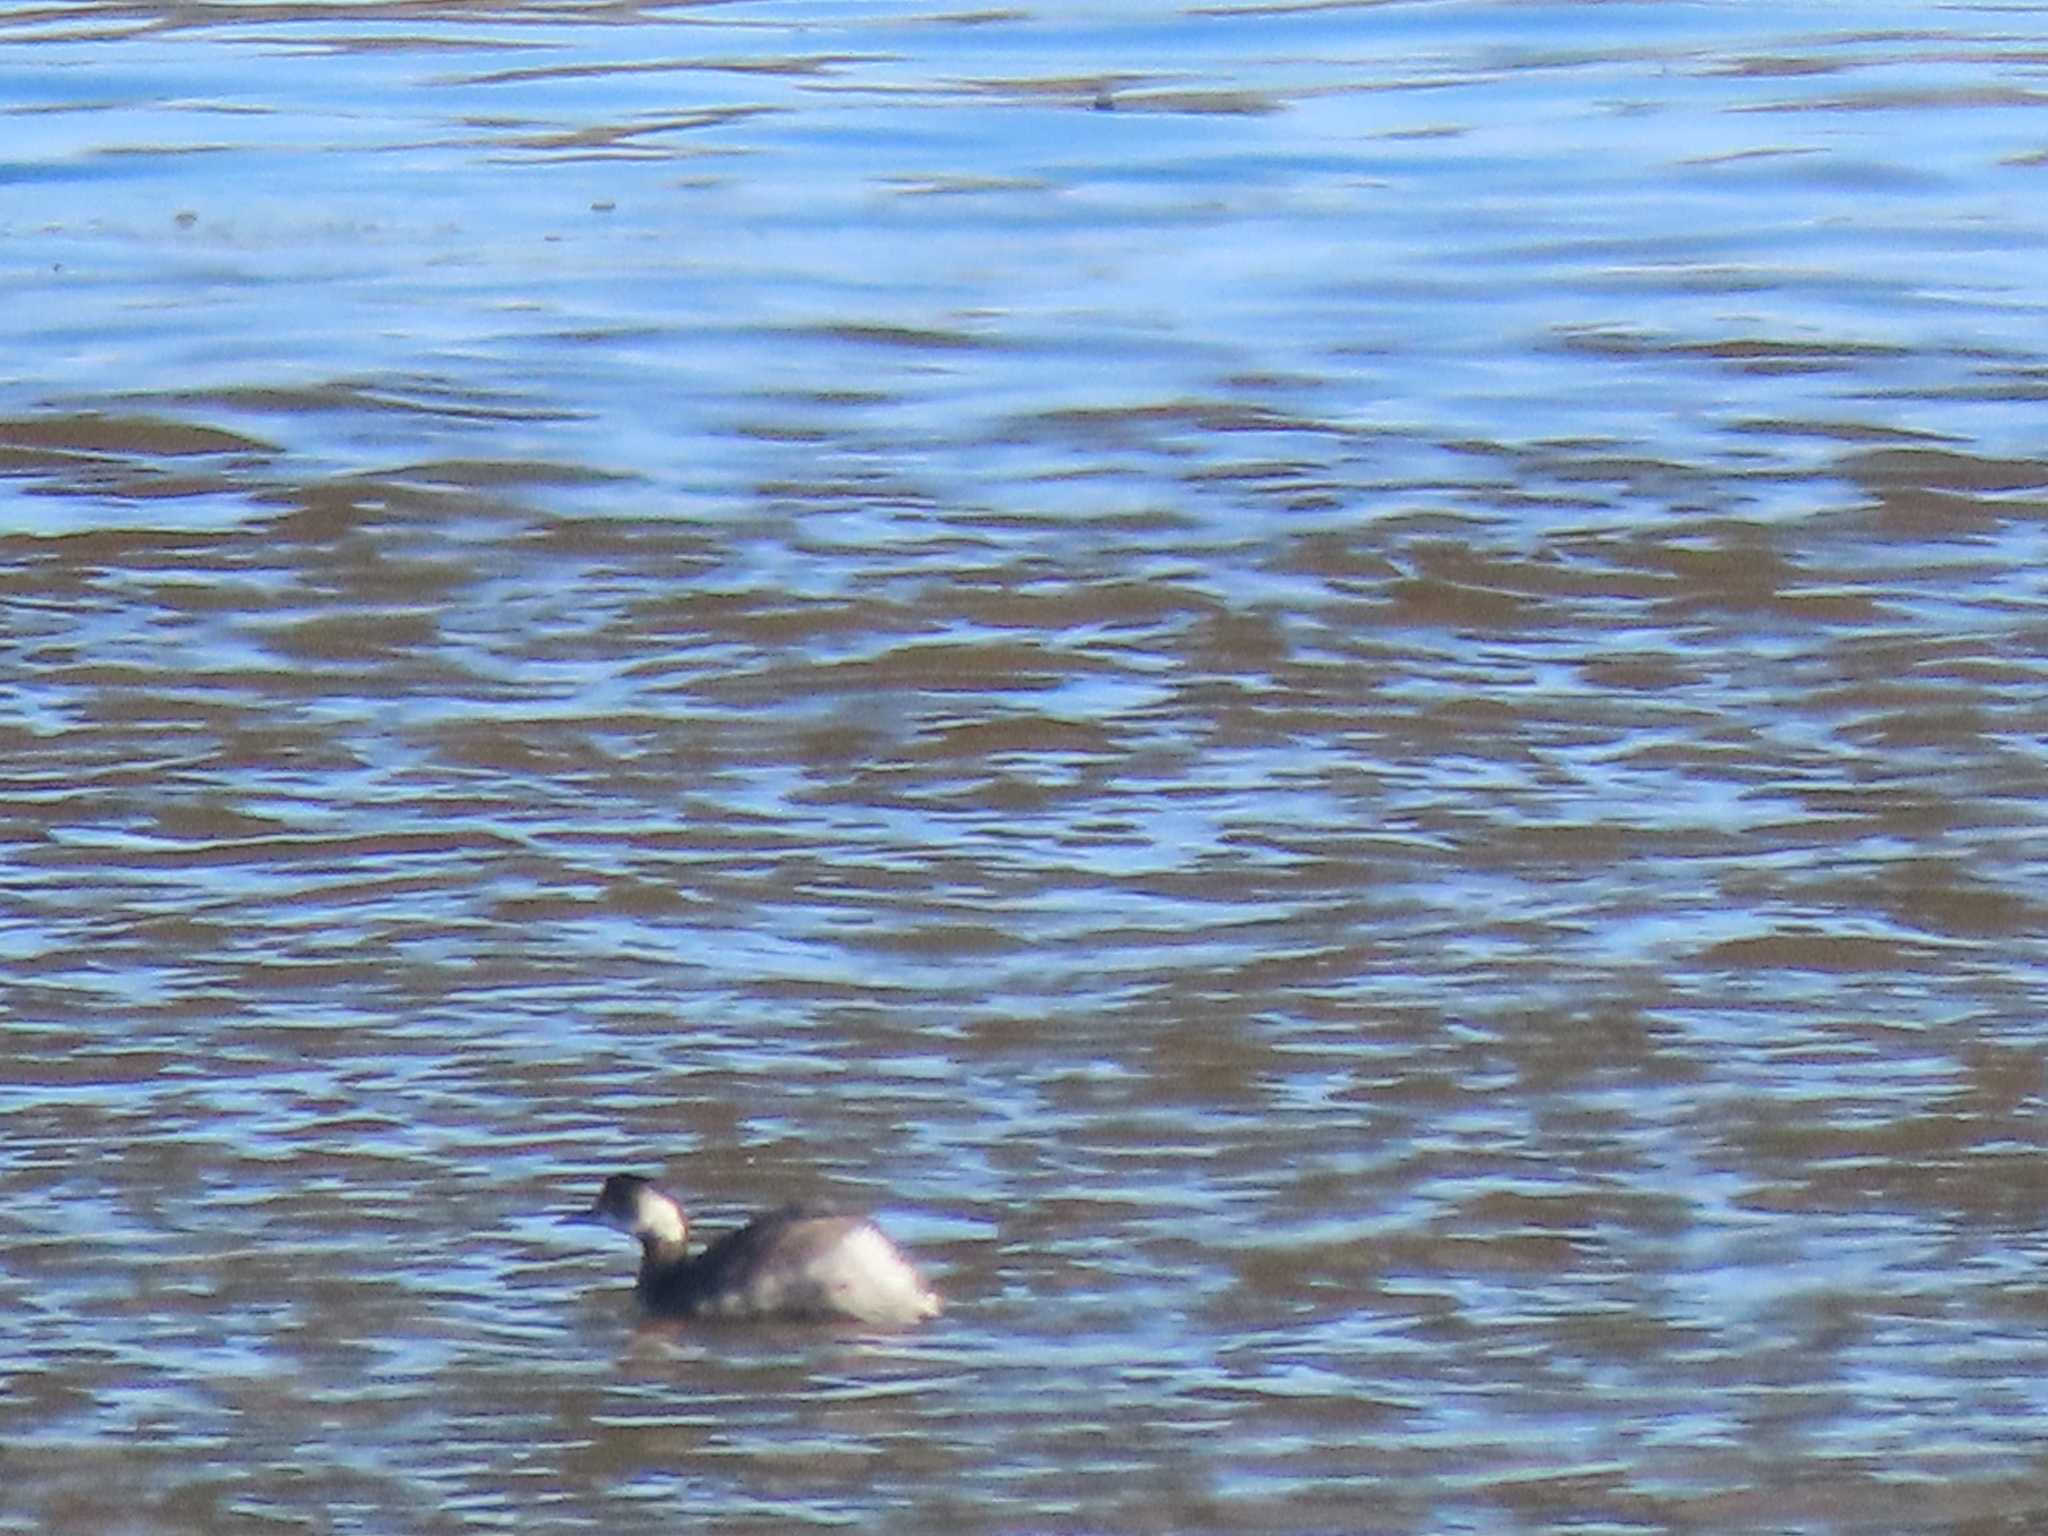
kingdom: Animalia
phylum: Chordata
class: Aves
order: Podicipediformes
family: Podicipedidae
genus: Podiceps
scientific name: Podiceps nigricollis
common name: Black-necked grebe
